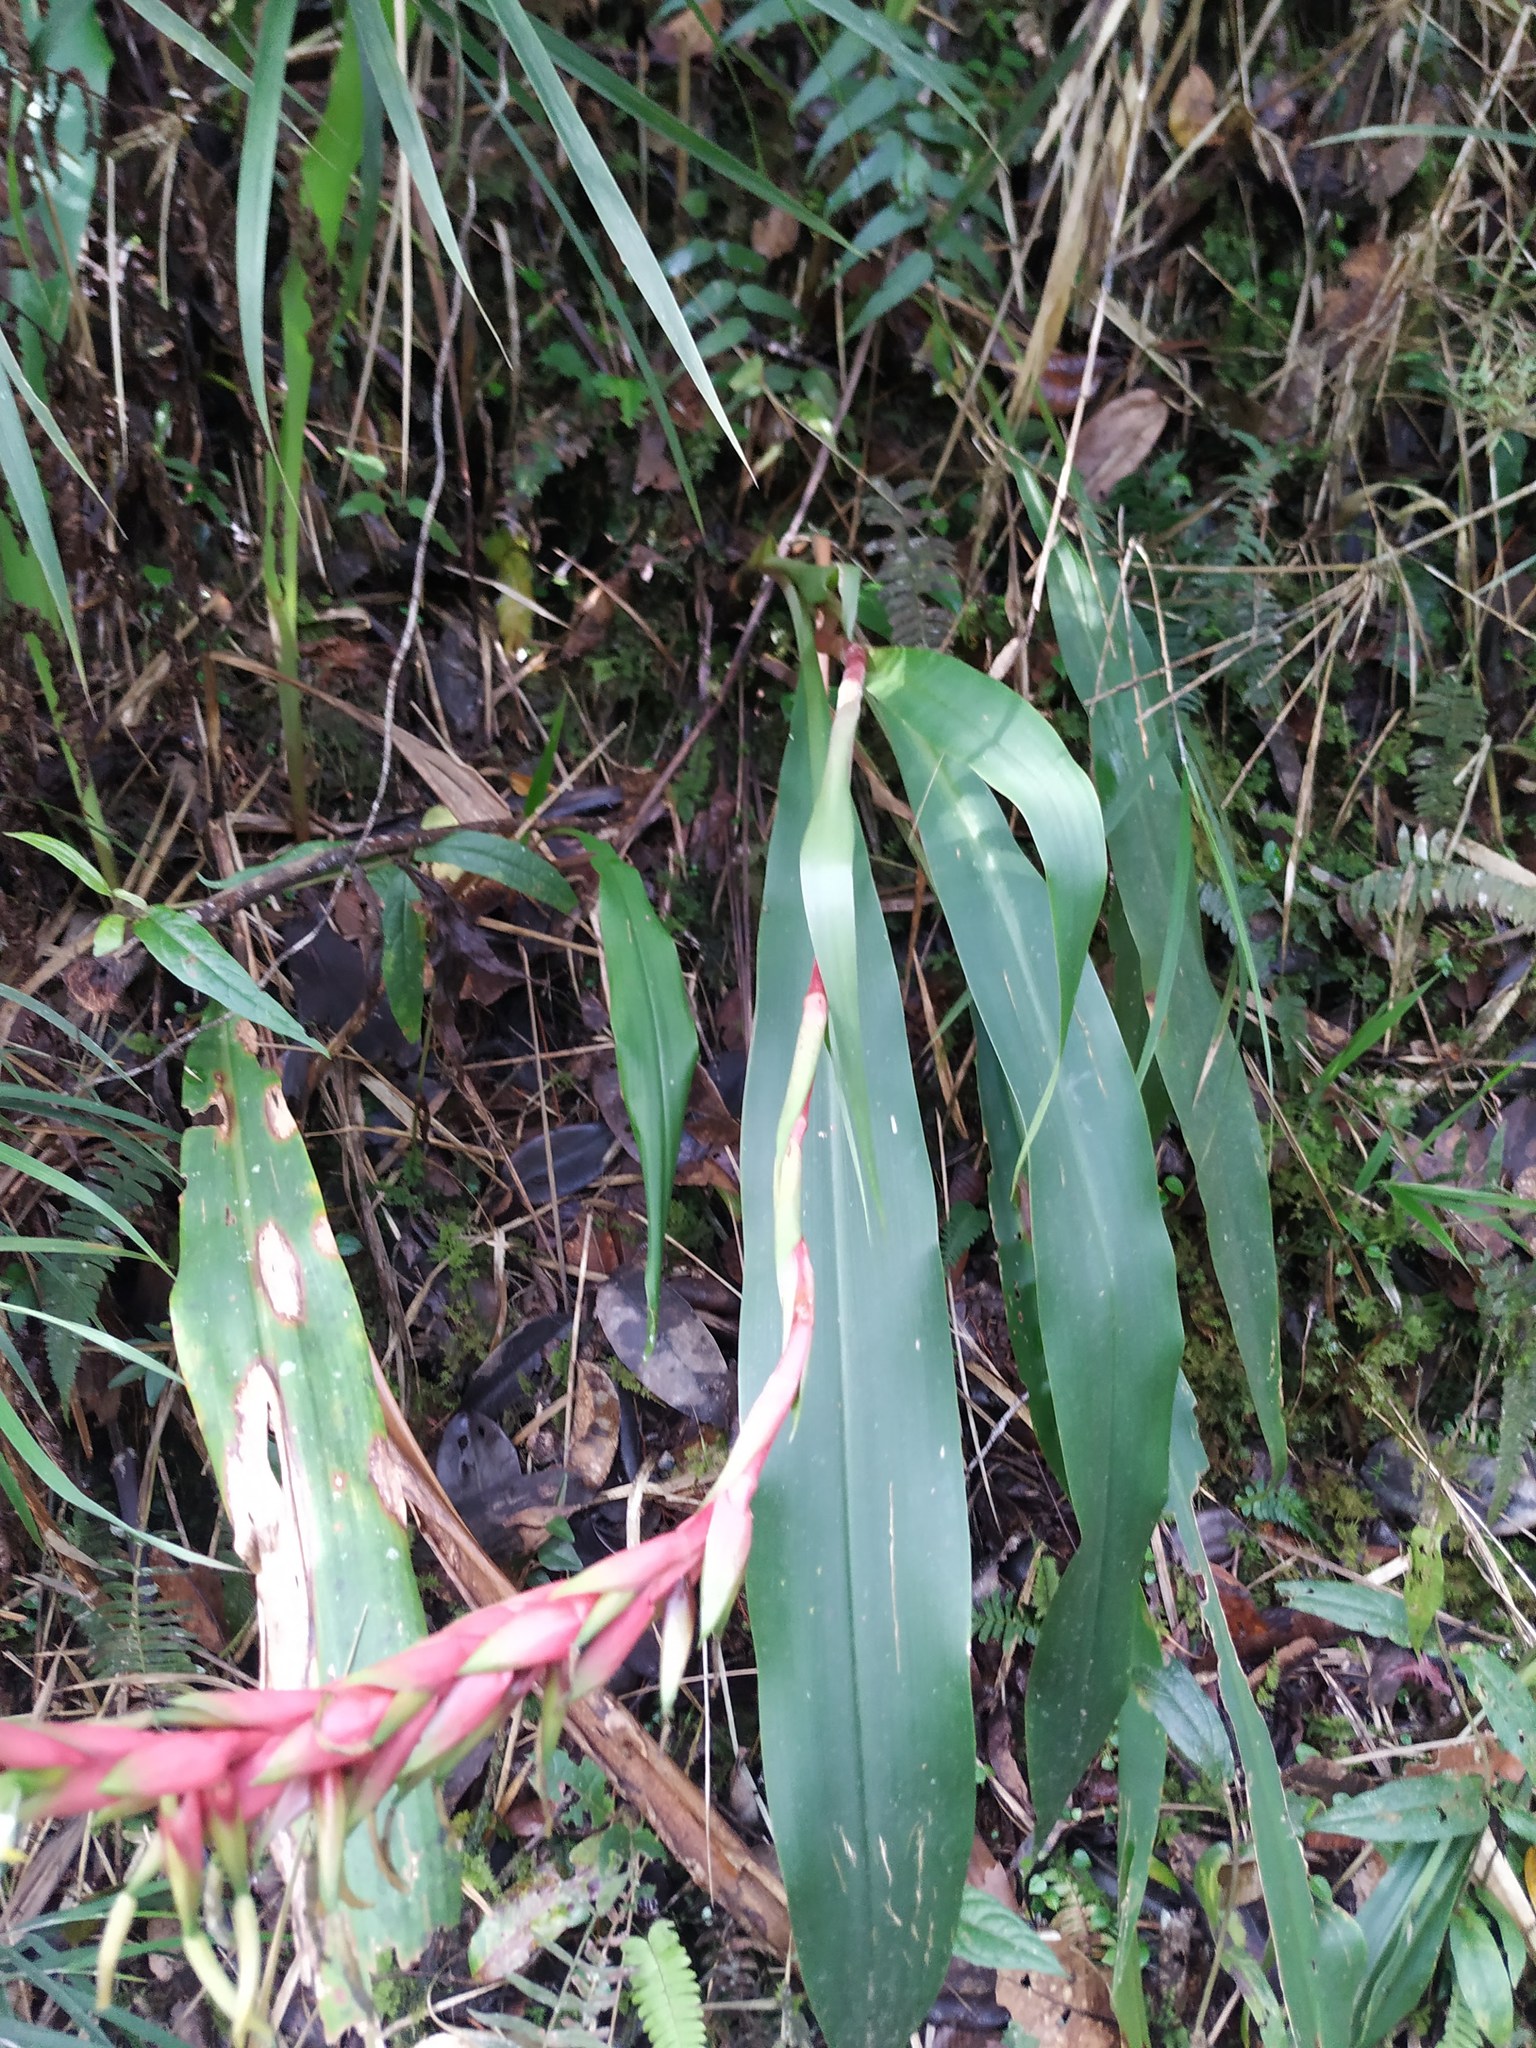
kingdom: Plantae
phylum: Tracheophyta
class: Liliopsida
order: Poales
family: Bromeliaceae
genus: Pitcairnia
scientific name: Pitcairnia maidifolia
